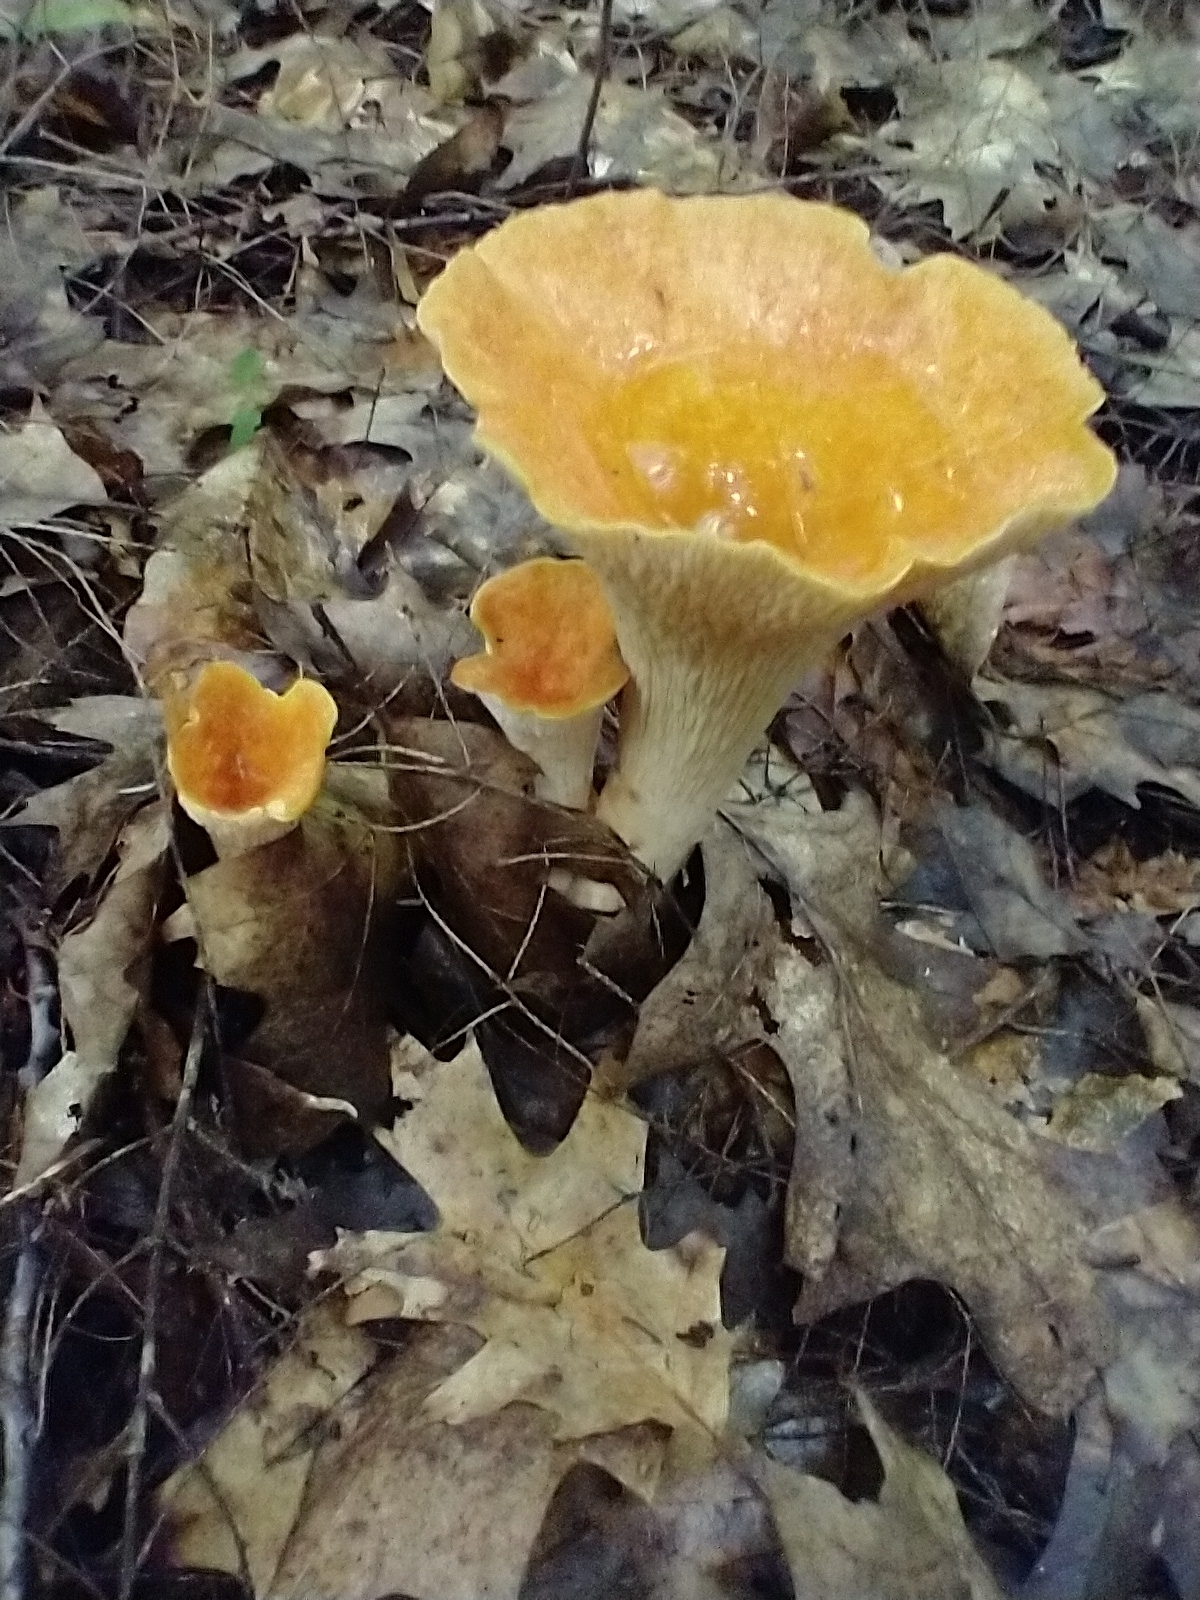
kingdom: Fungi
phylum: Basidiomycota
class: Agaricomycetes
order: Gomphales
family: Gomphaceae
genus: Turbinellus
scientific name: Turbinellus floccosus
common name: Scaly chanterelle
